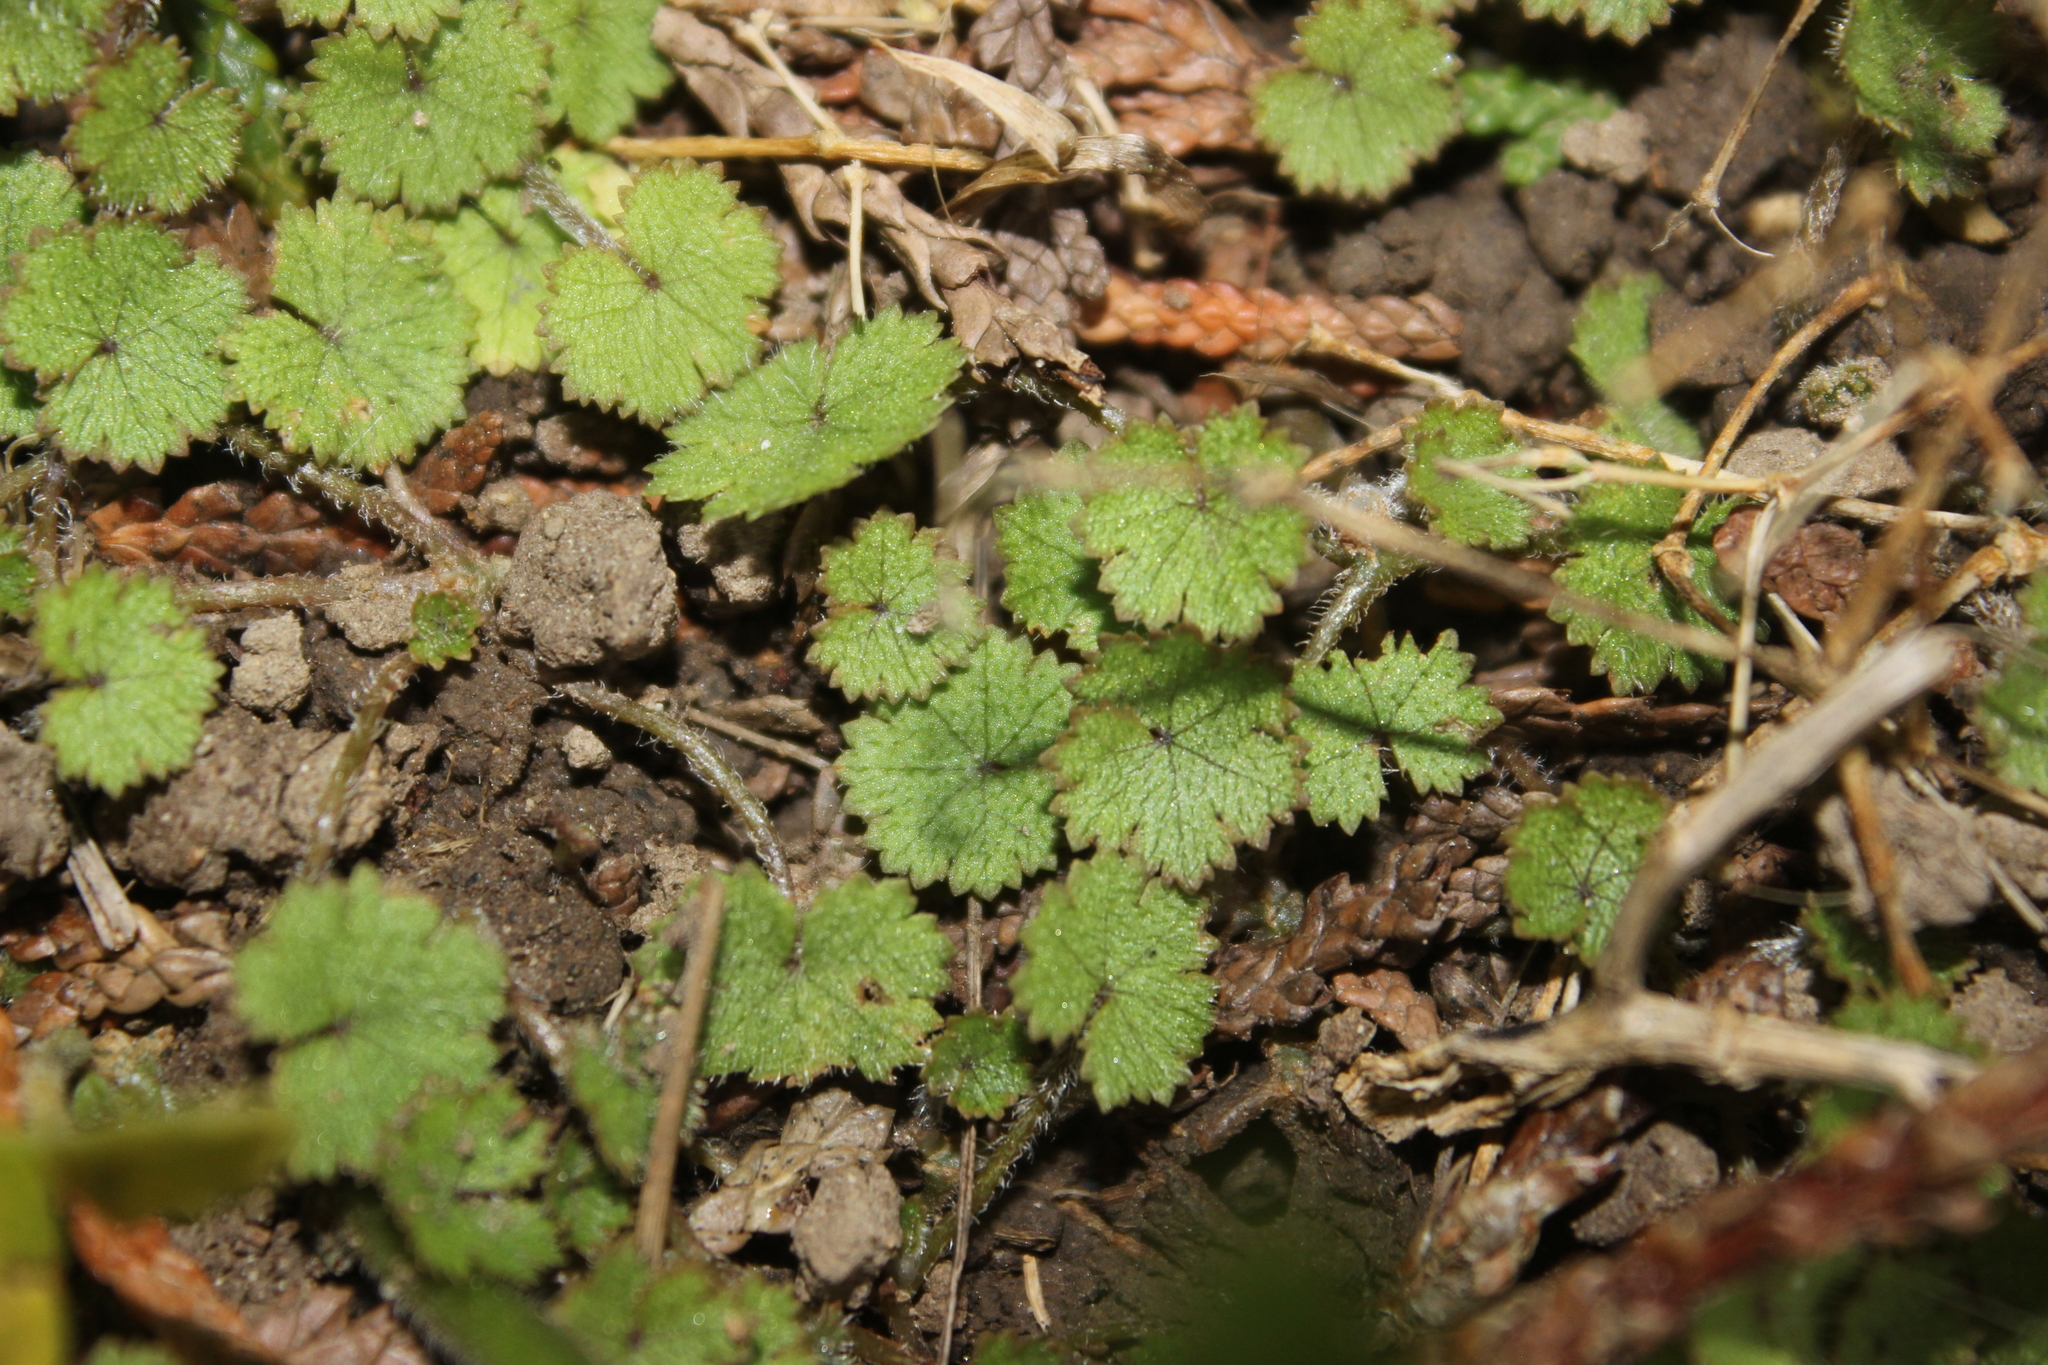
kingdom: Plantae
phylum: Tracheophyta
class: Magnoliopsida
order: Apiales
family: Araliaceae
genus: Hydrocotyle
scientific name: Hydrocotyle moschata
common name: Hairy pennywort
